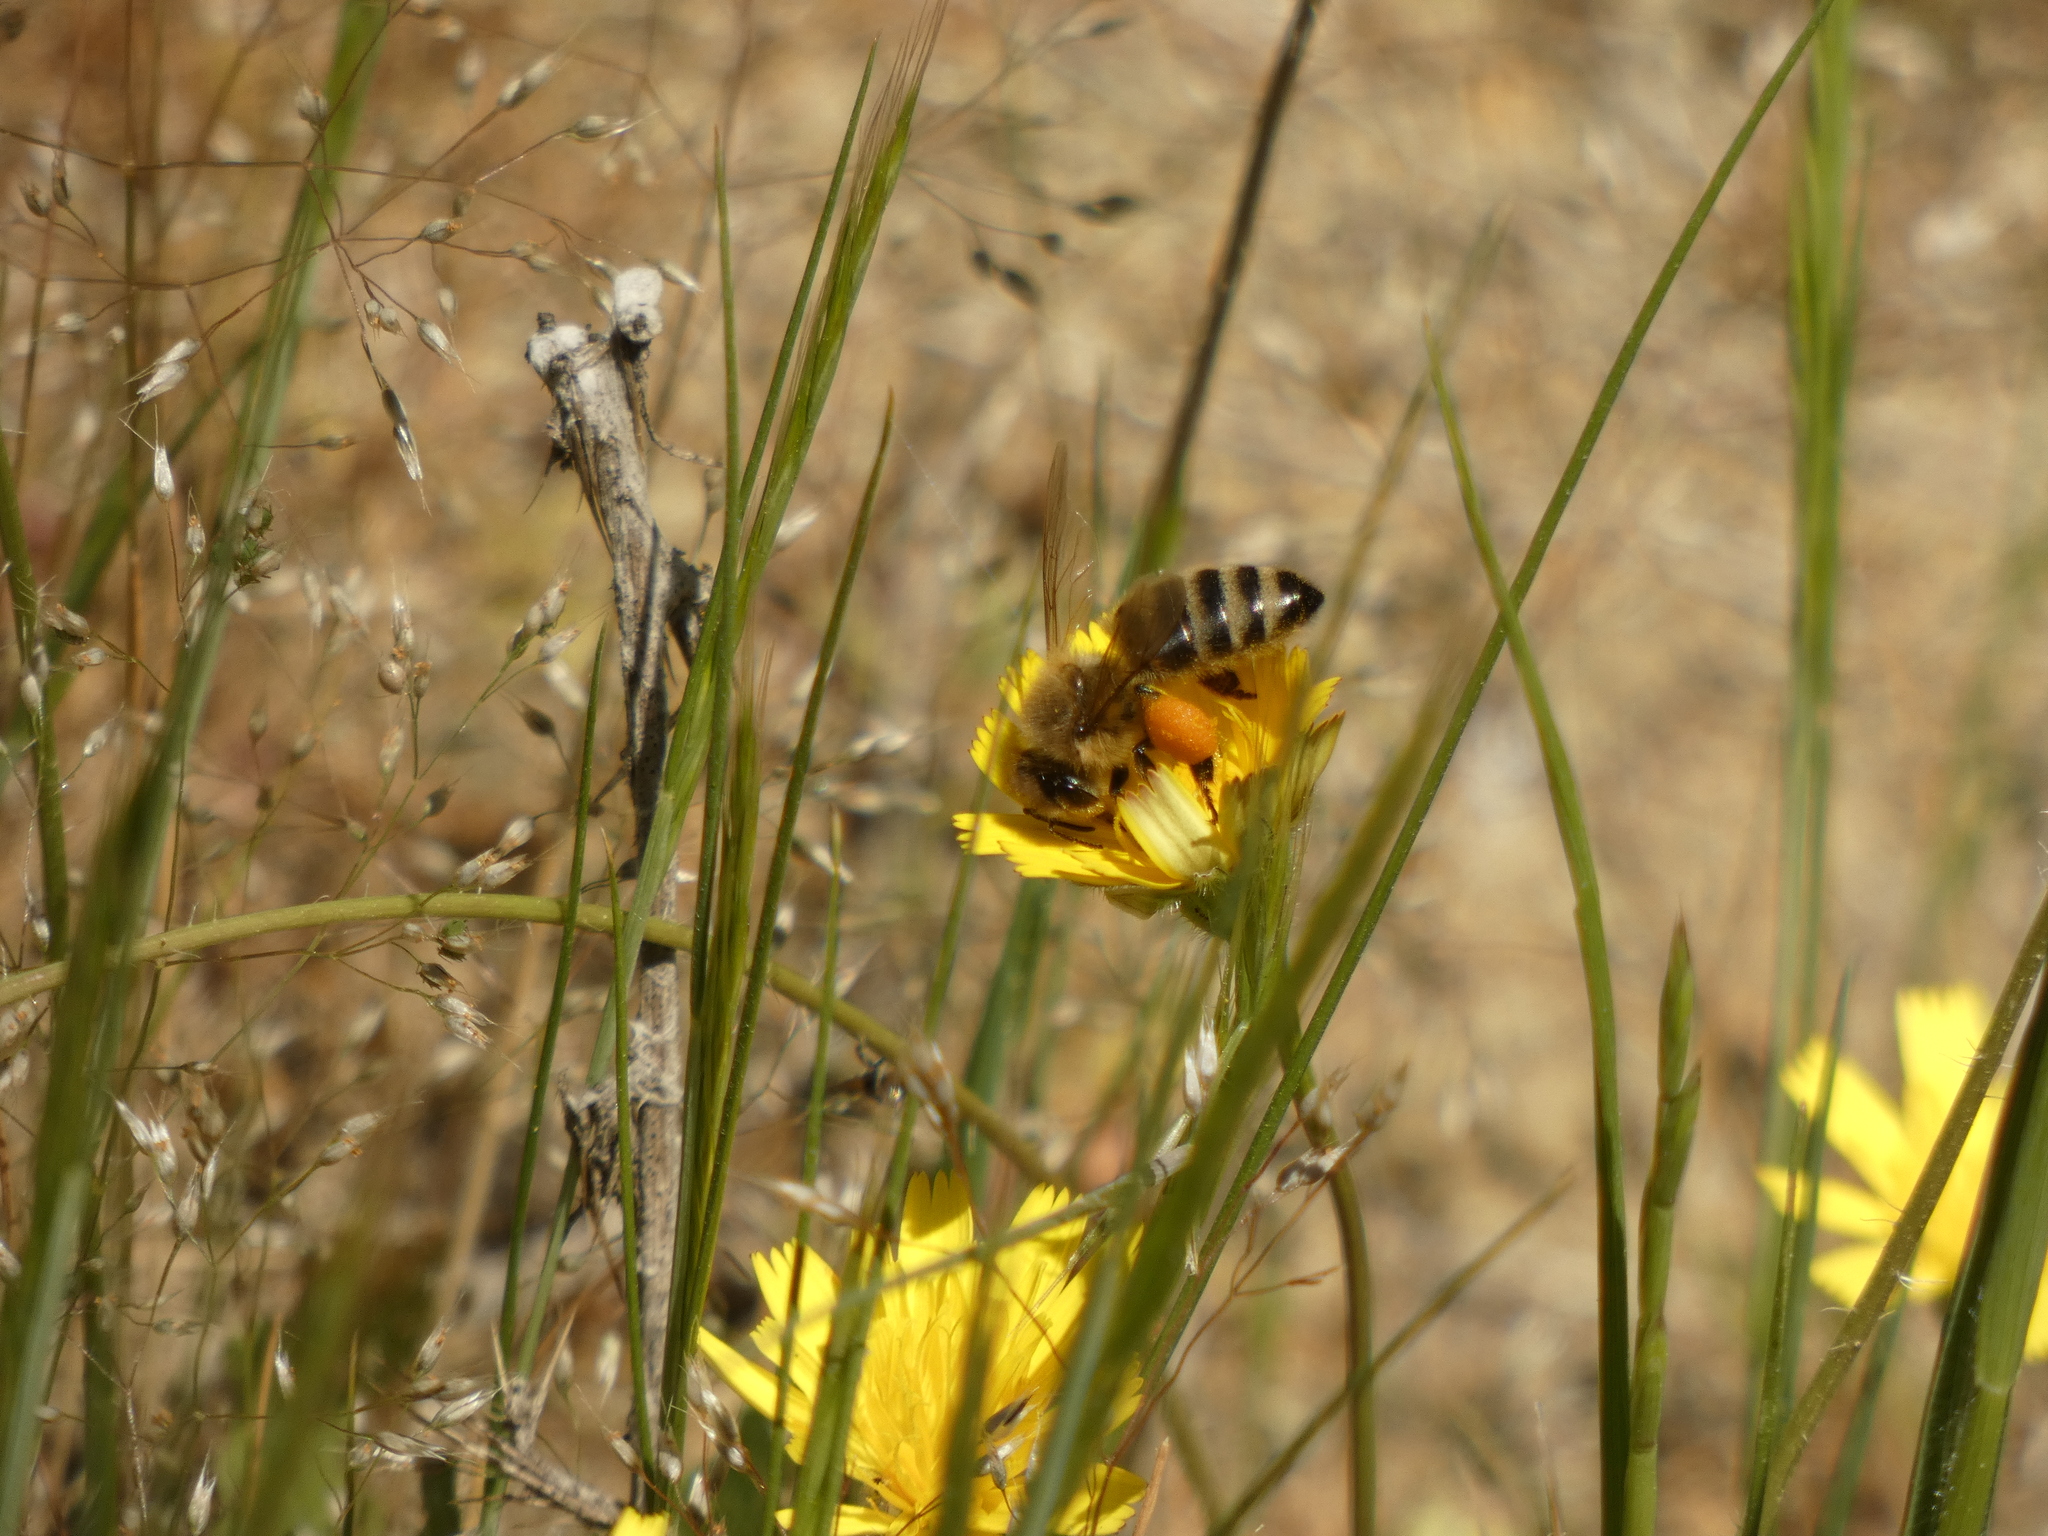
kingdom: Animalia
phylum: Arthropoda
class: Insecta
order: Hymenoptera
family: Apidae
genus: Apis
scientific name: Apis mellifera
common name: Honey bee
